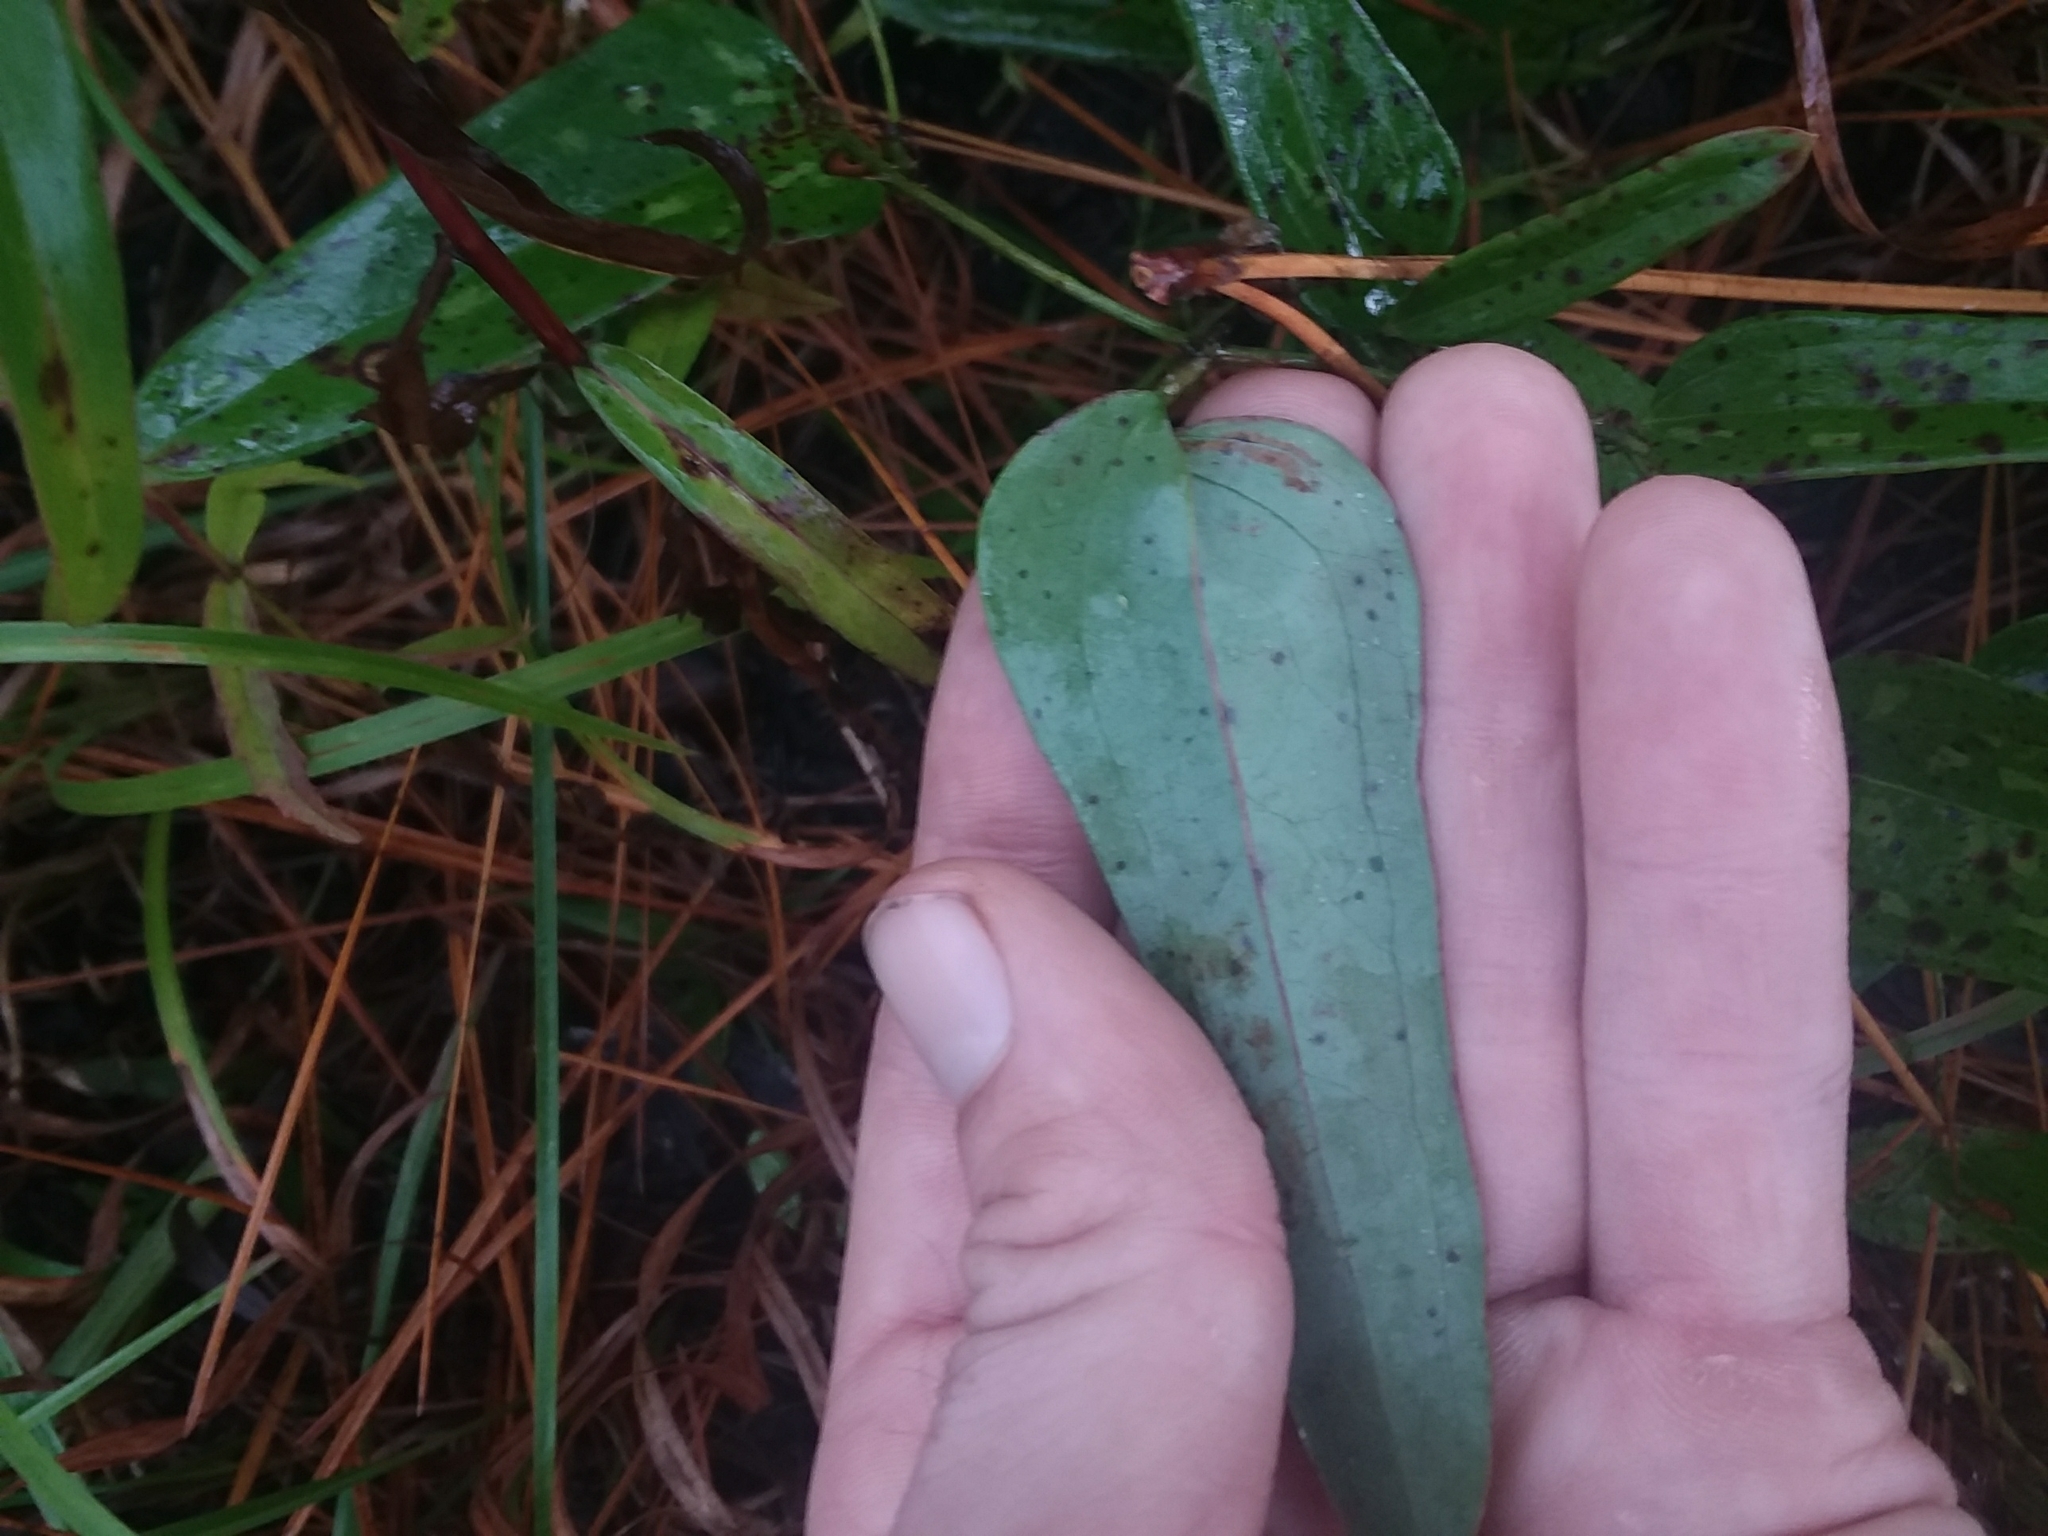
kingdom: Plantae
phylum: Tracheophyta
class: Liliopsida
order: Liliales
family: Smilacaceae
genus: Smilax
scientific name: Smilax glauca
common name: Cat greenbrier
